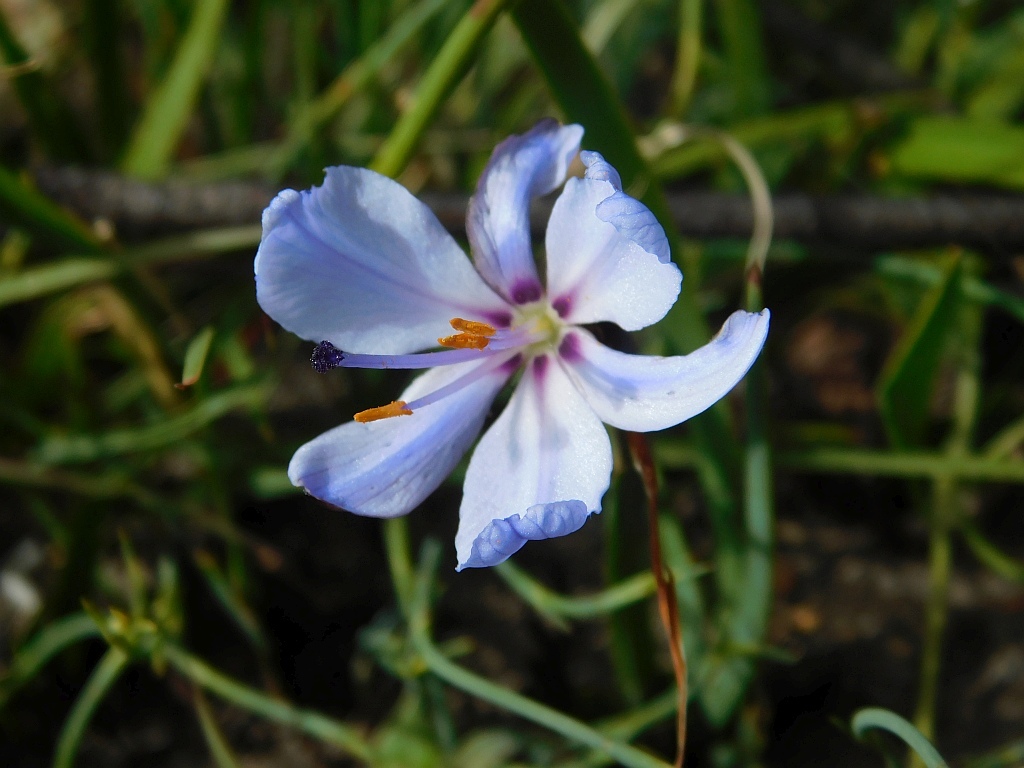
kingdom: Plantae
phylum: Tracheophyta
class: Liliopsida
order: Asparagales
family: Iridaceae
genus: Aristea
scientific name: Aristea spiralis
